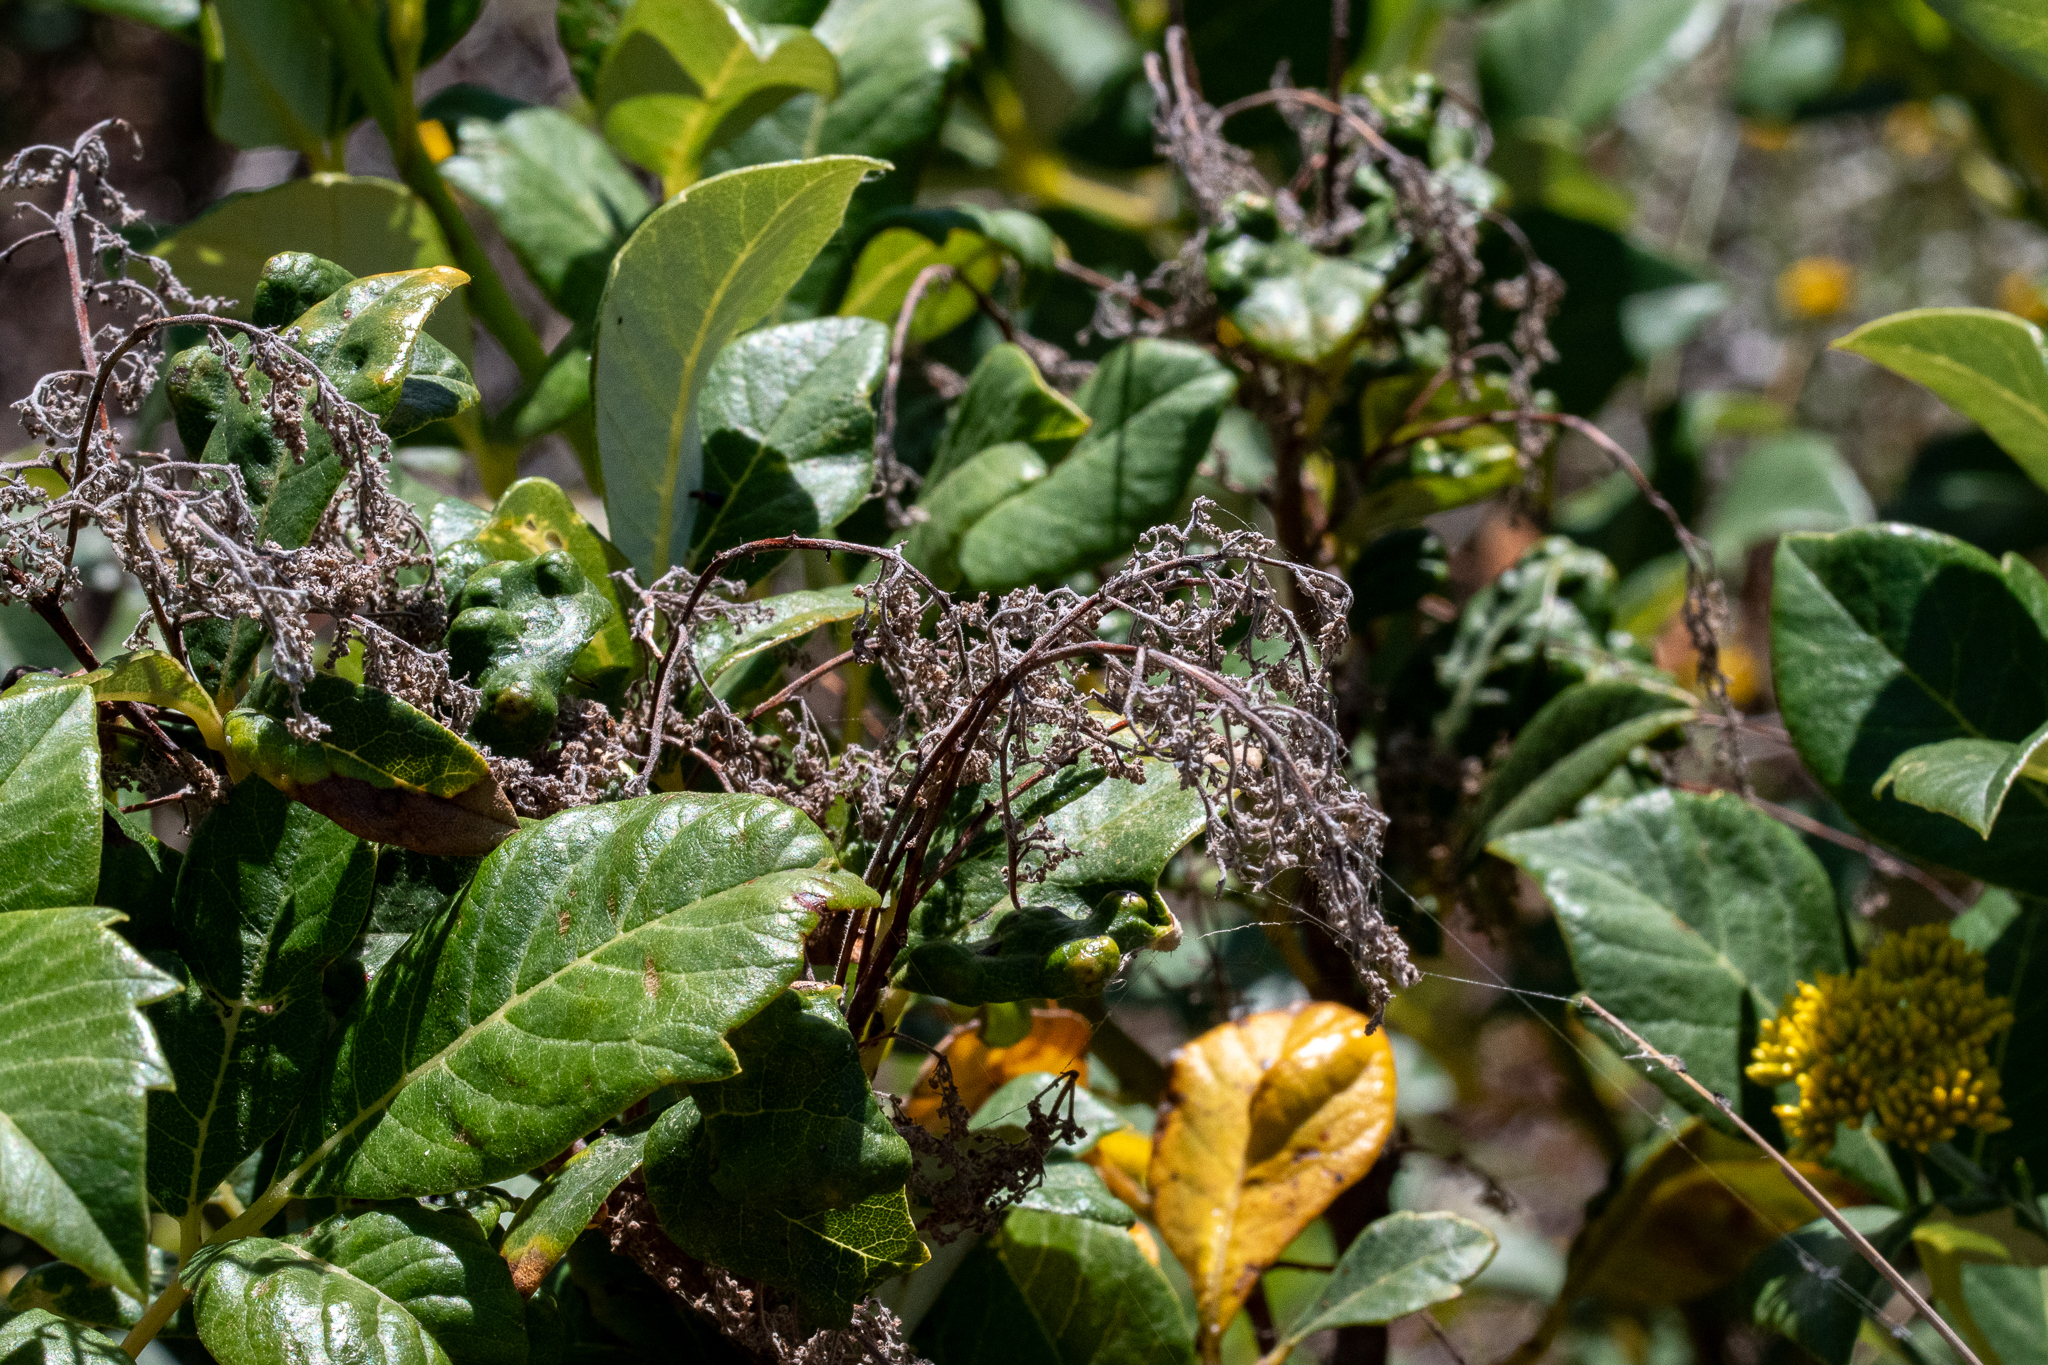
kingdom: Plantae
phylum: Tracheophyta
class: Magnoliopsida
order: Sapindales
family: Anacardiaceae
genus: Searsia
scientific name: Searsia tomentosa
